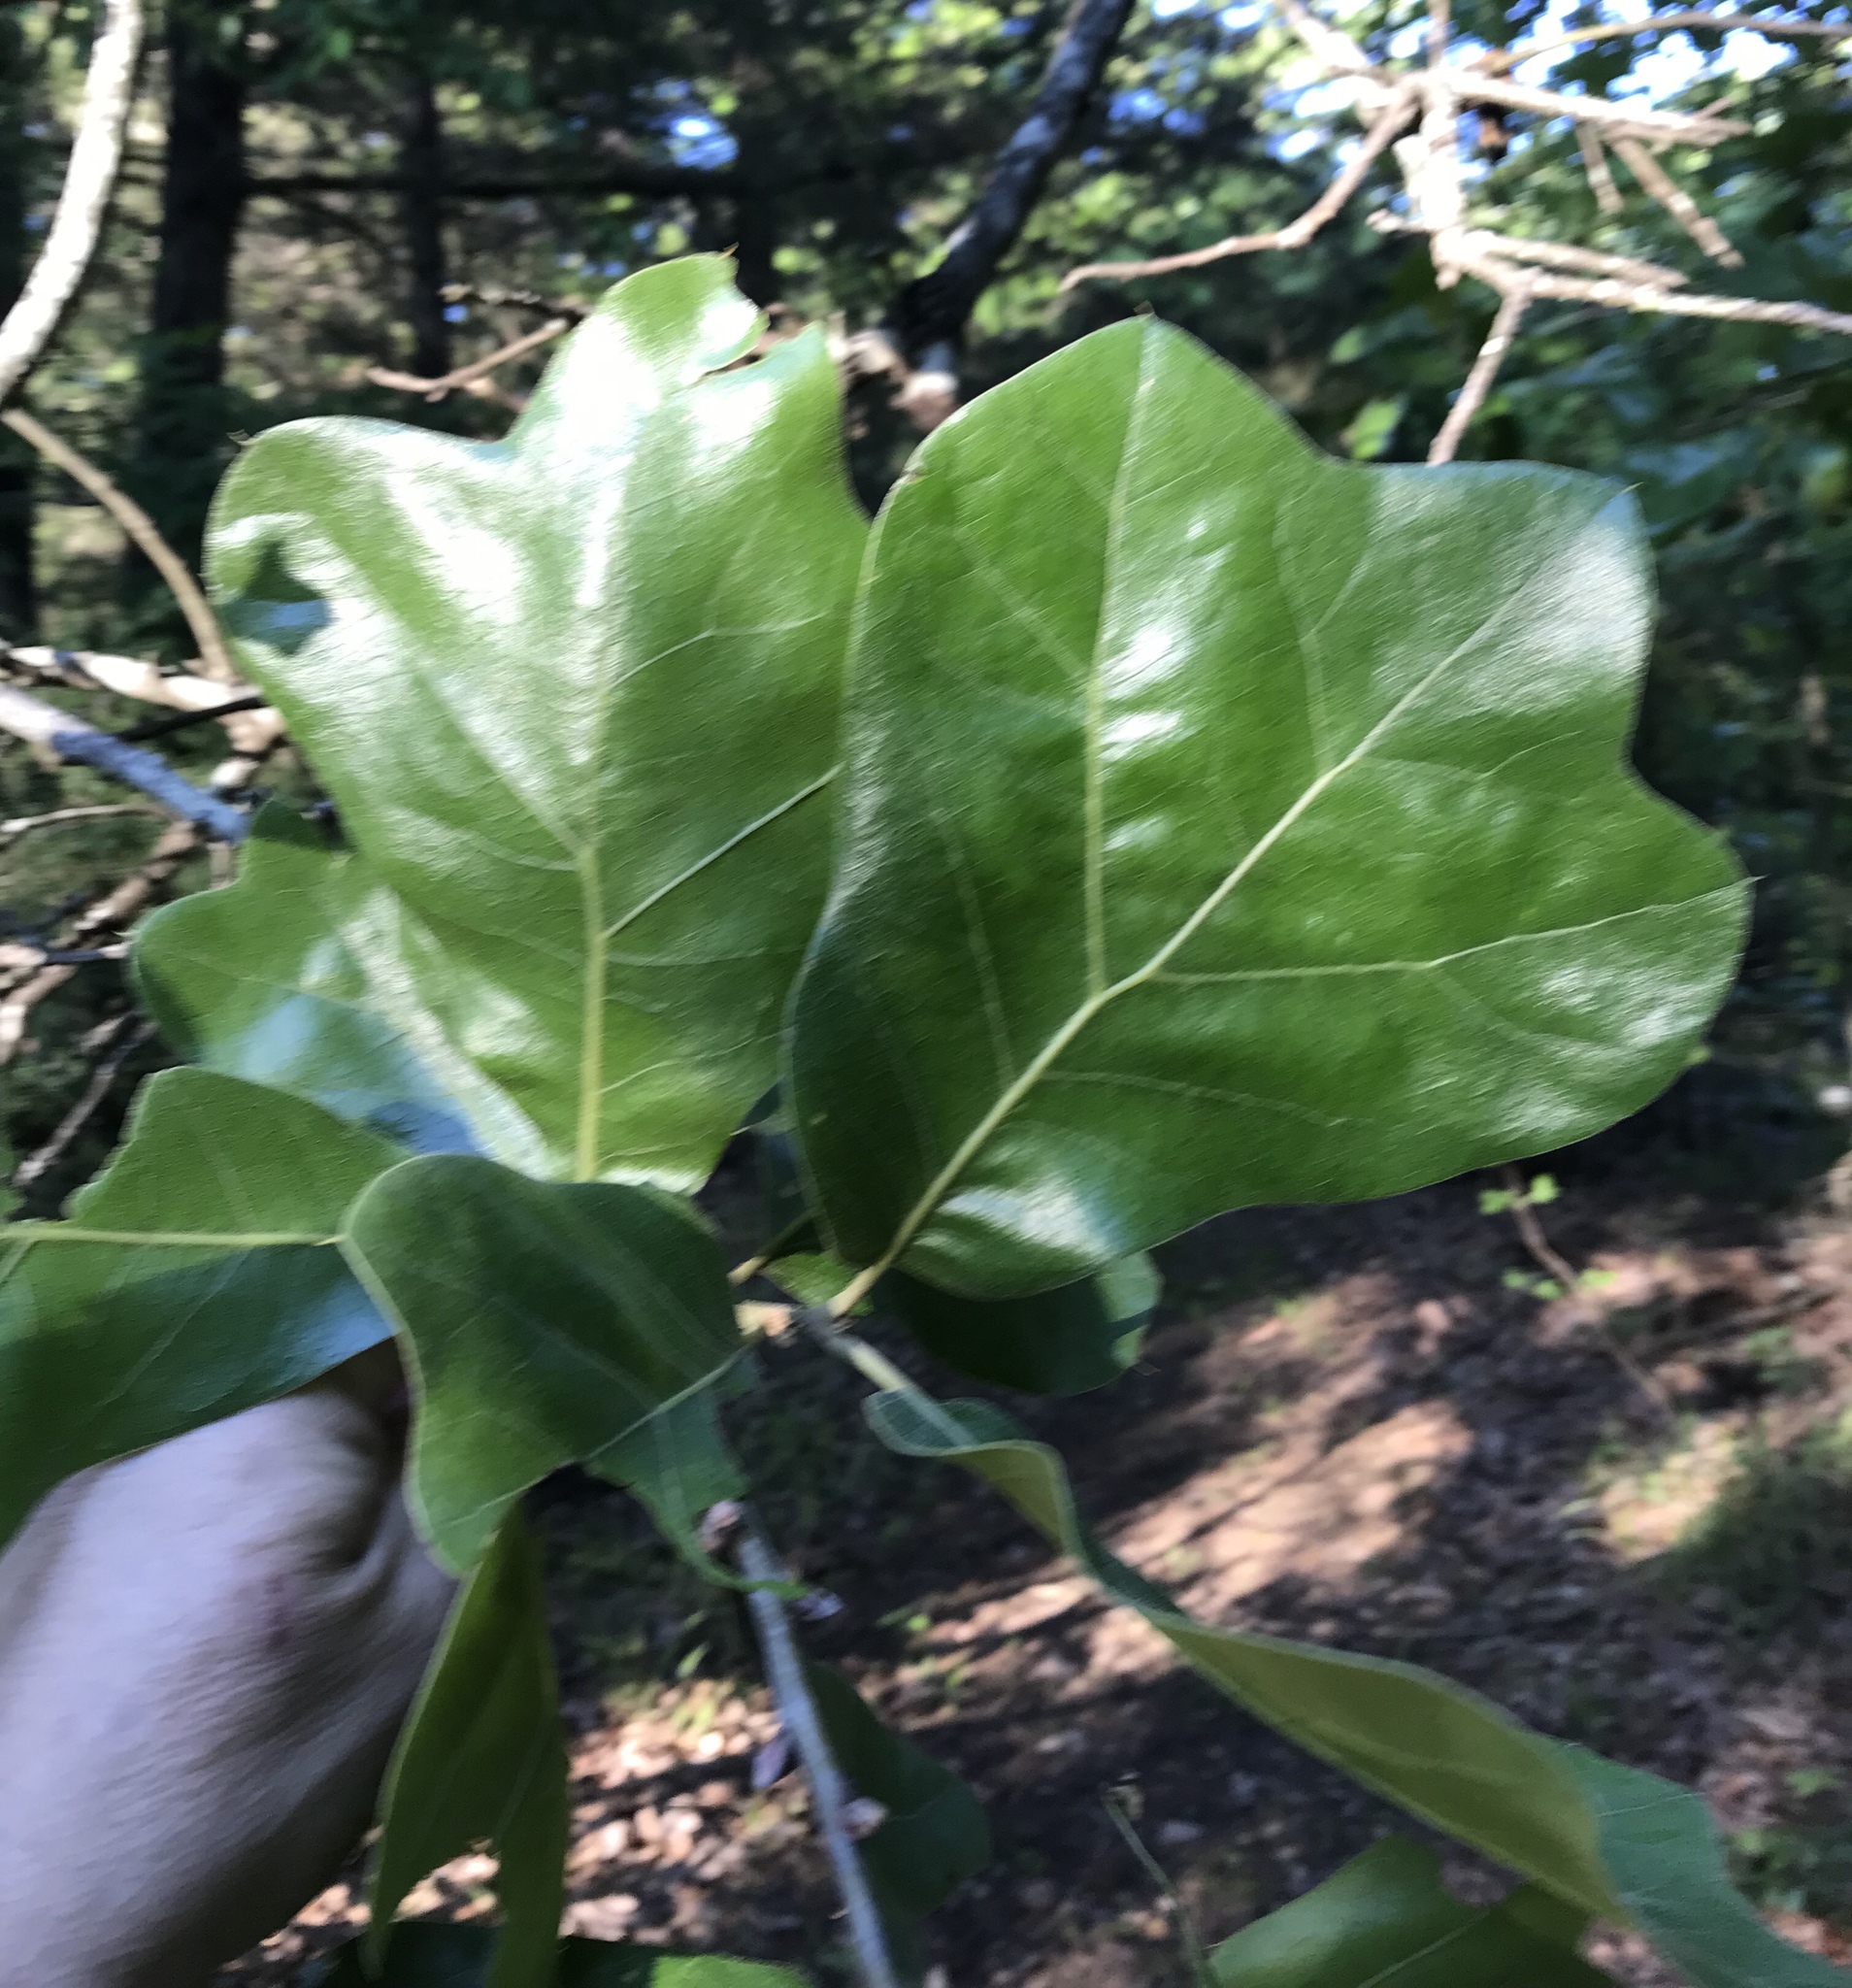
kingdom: Plantae
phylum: Tracheophyta
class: Magnoliopsida
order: Fagales
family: Fagaceae
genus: Quercus
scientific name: Quercus marilandica
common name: Blackjack oak
